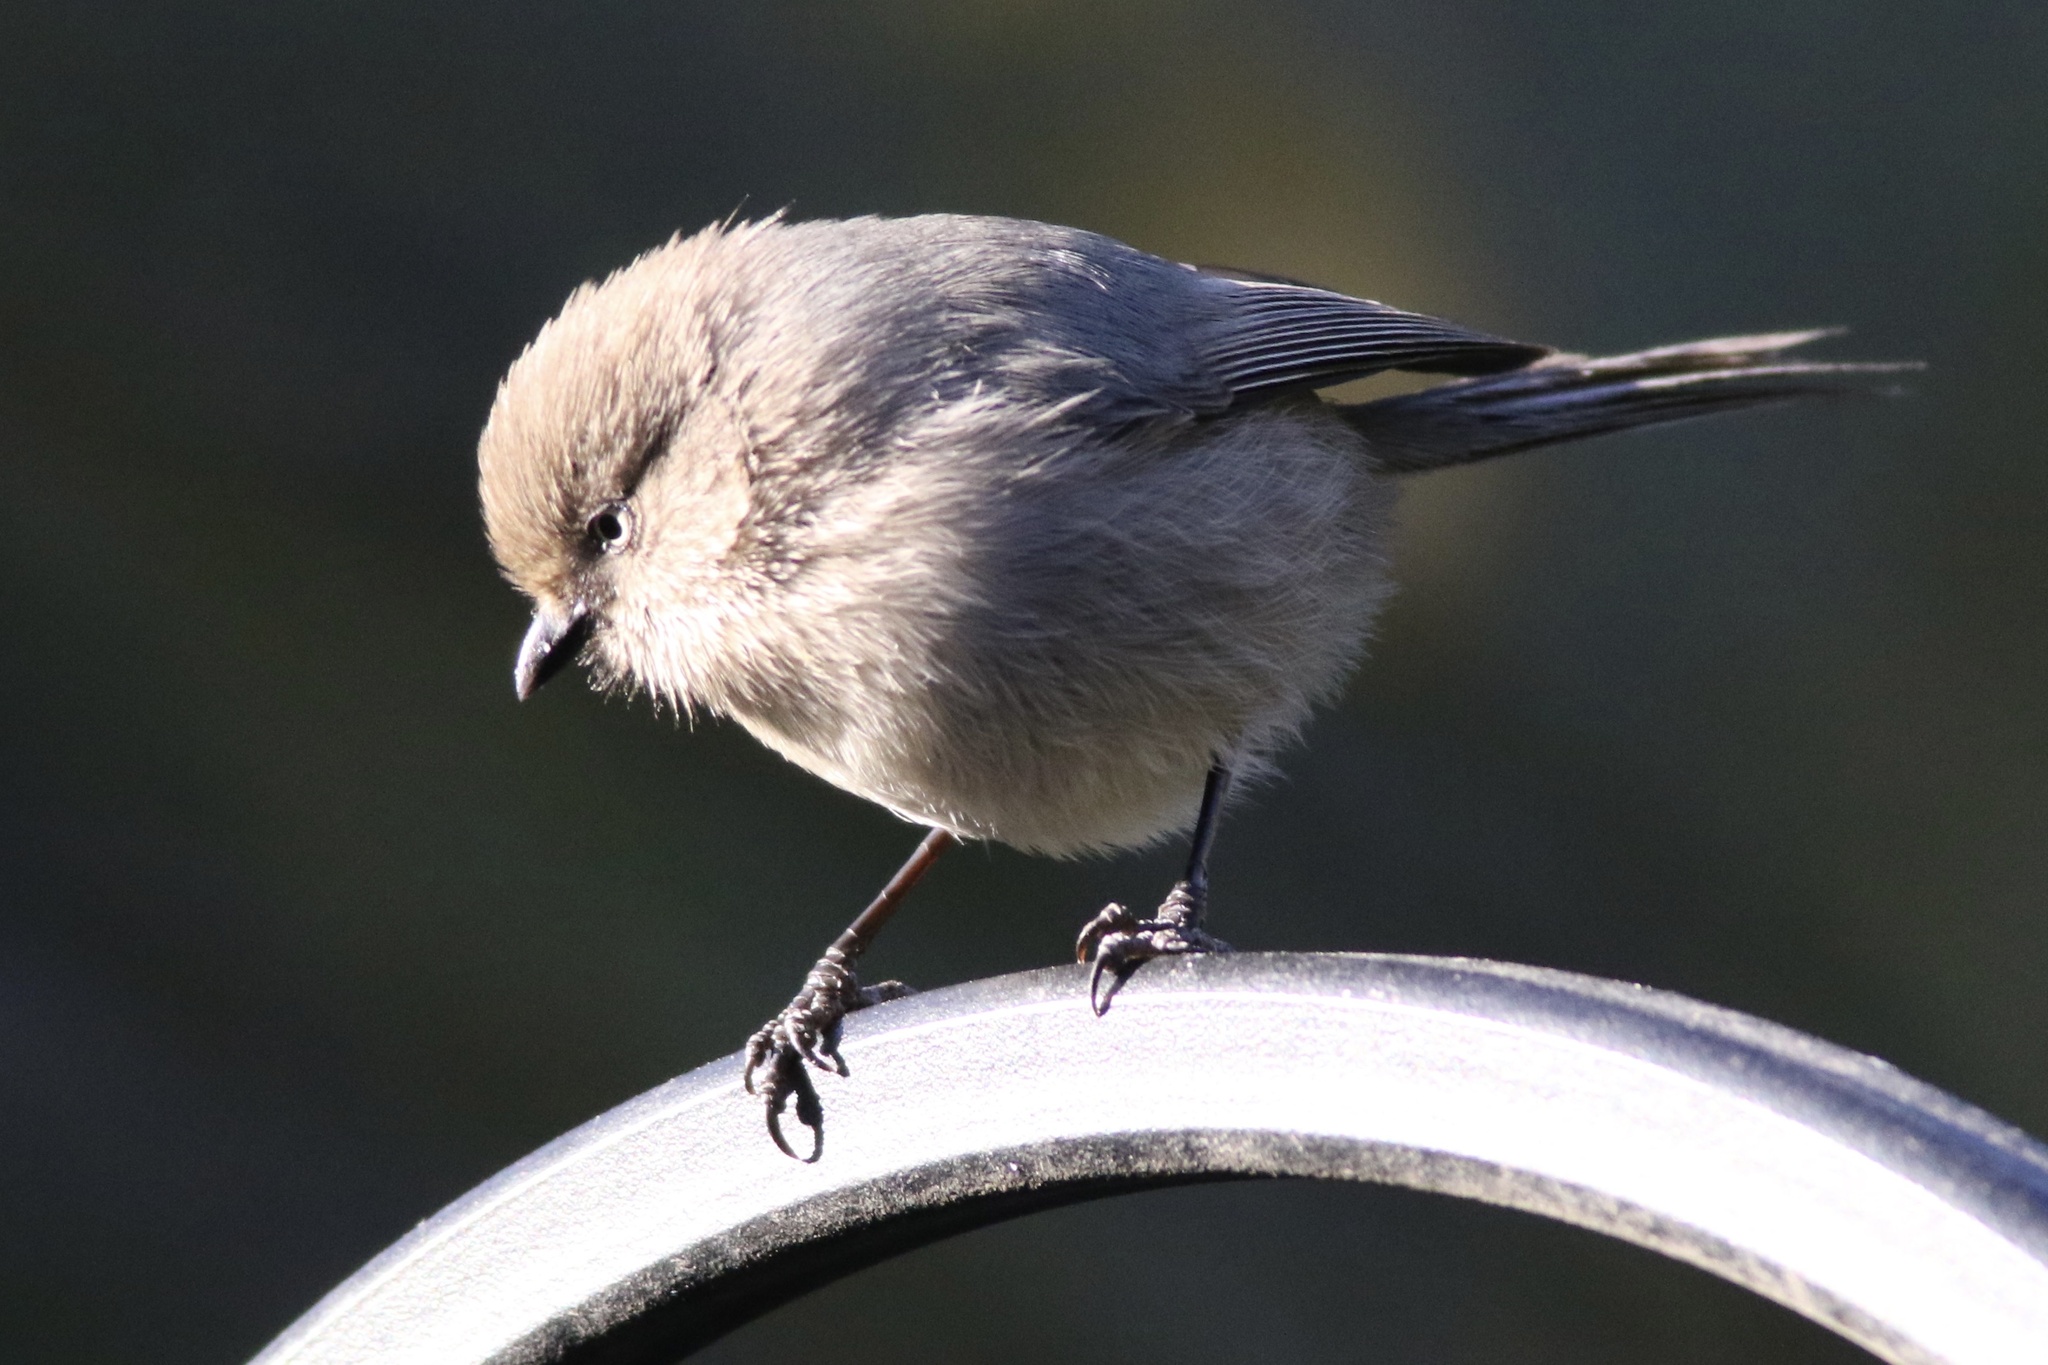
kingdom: Animalia
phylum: Chordata
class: Aves
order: Passeriformes
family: Aegithalidae
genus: Psaltriparus
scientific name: Psaltriparus minimus
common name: American bushtit
